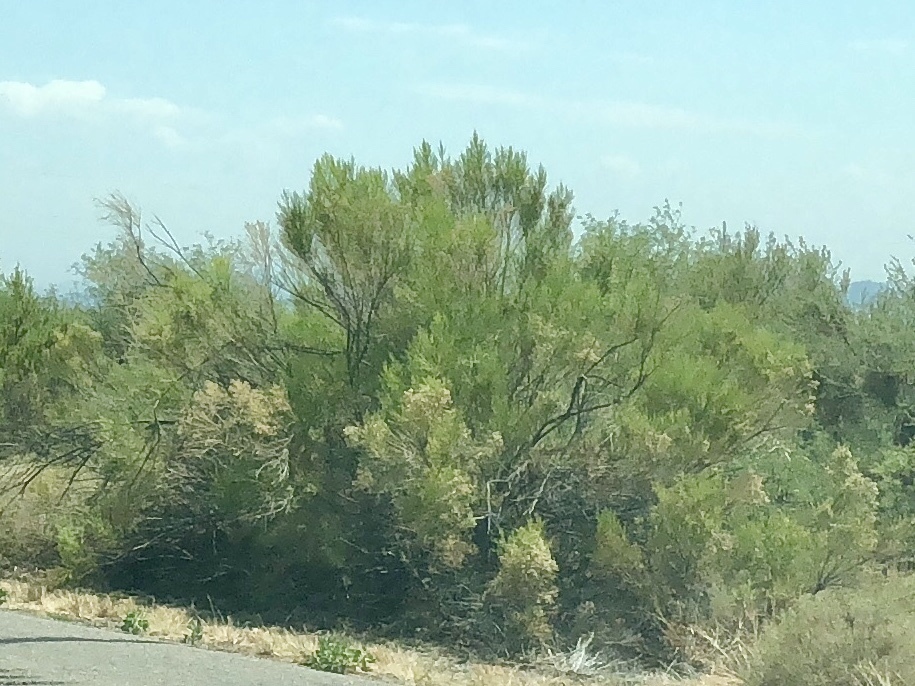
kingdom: Plantae
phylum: Tracheophyta
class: Magnoliopsida
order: Asterales
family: Asteraceae
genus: Baccharis
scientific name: Baccharis sarothroides
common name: Desert-broom
